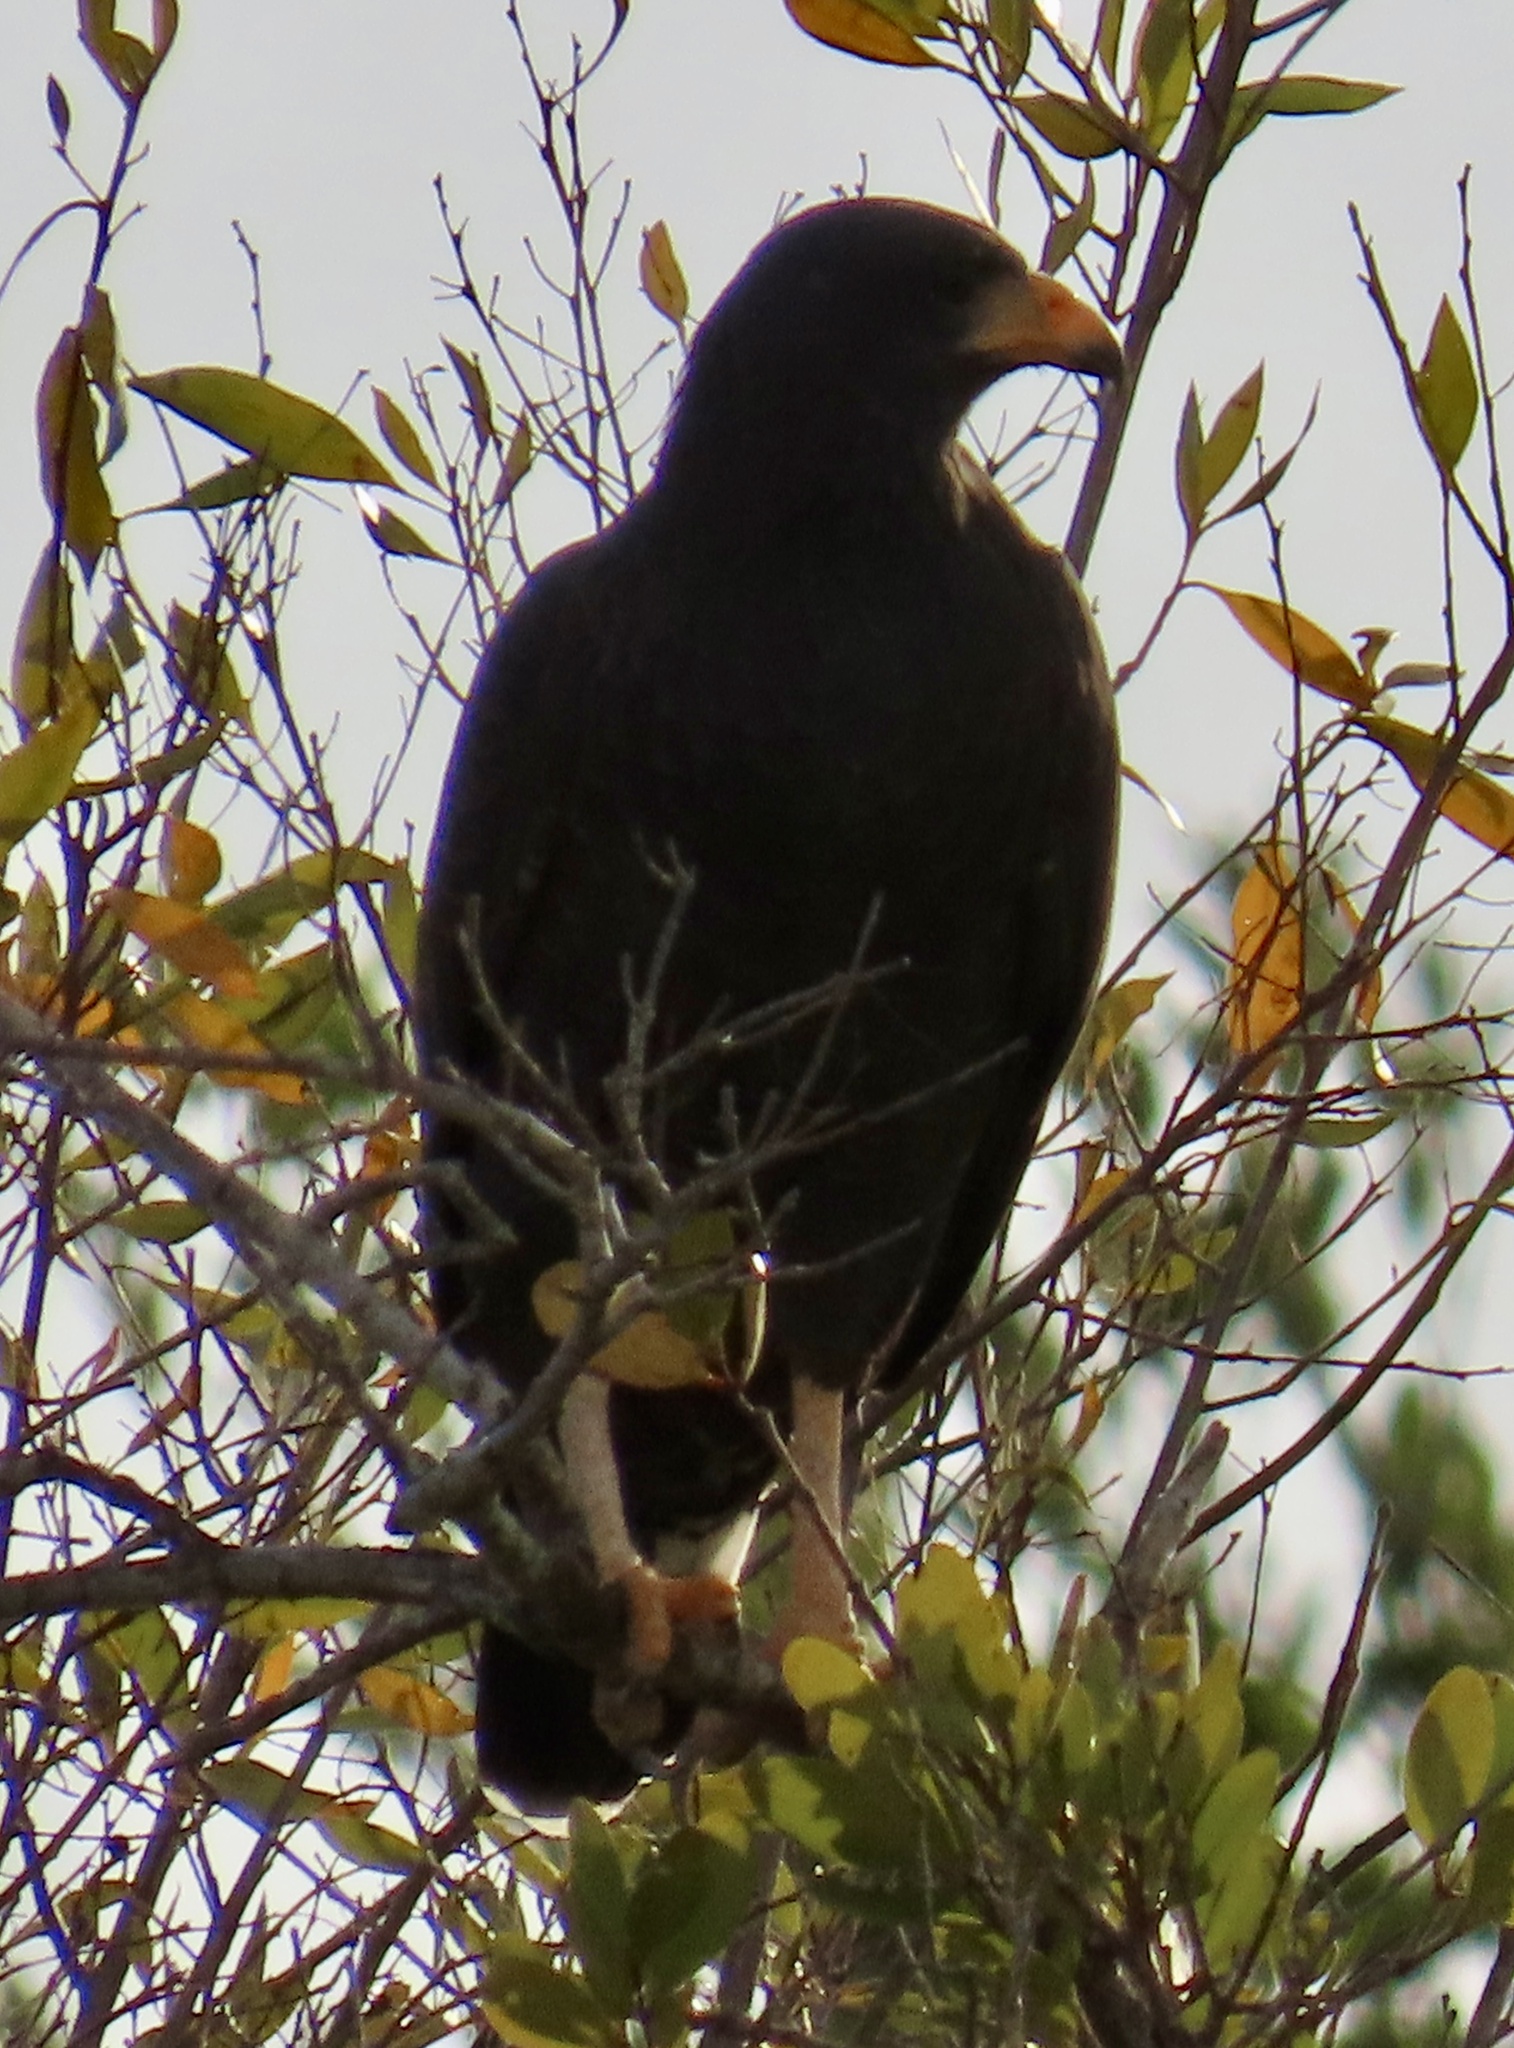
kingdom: Animalia
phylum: Chordata
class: Aves
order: Accipitriformes
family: Accipitridae
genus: Buteogallus
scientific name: Buteogallus gundlachii
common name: Cuban black hawk
